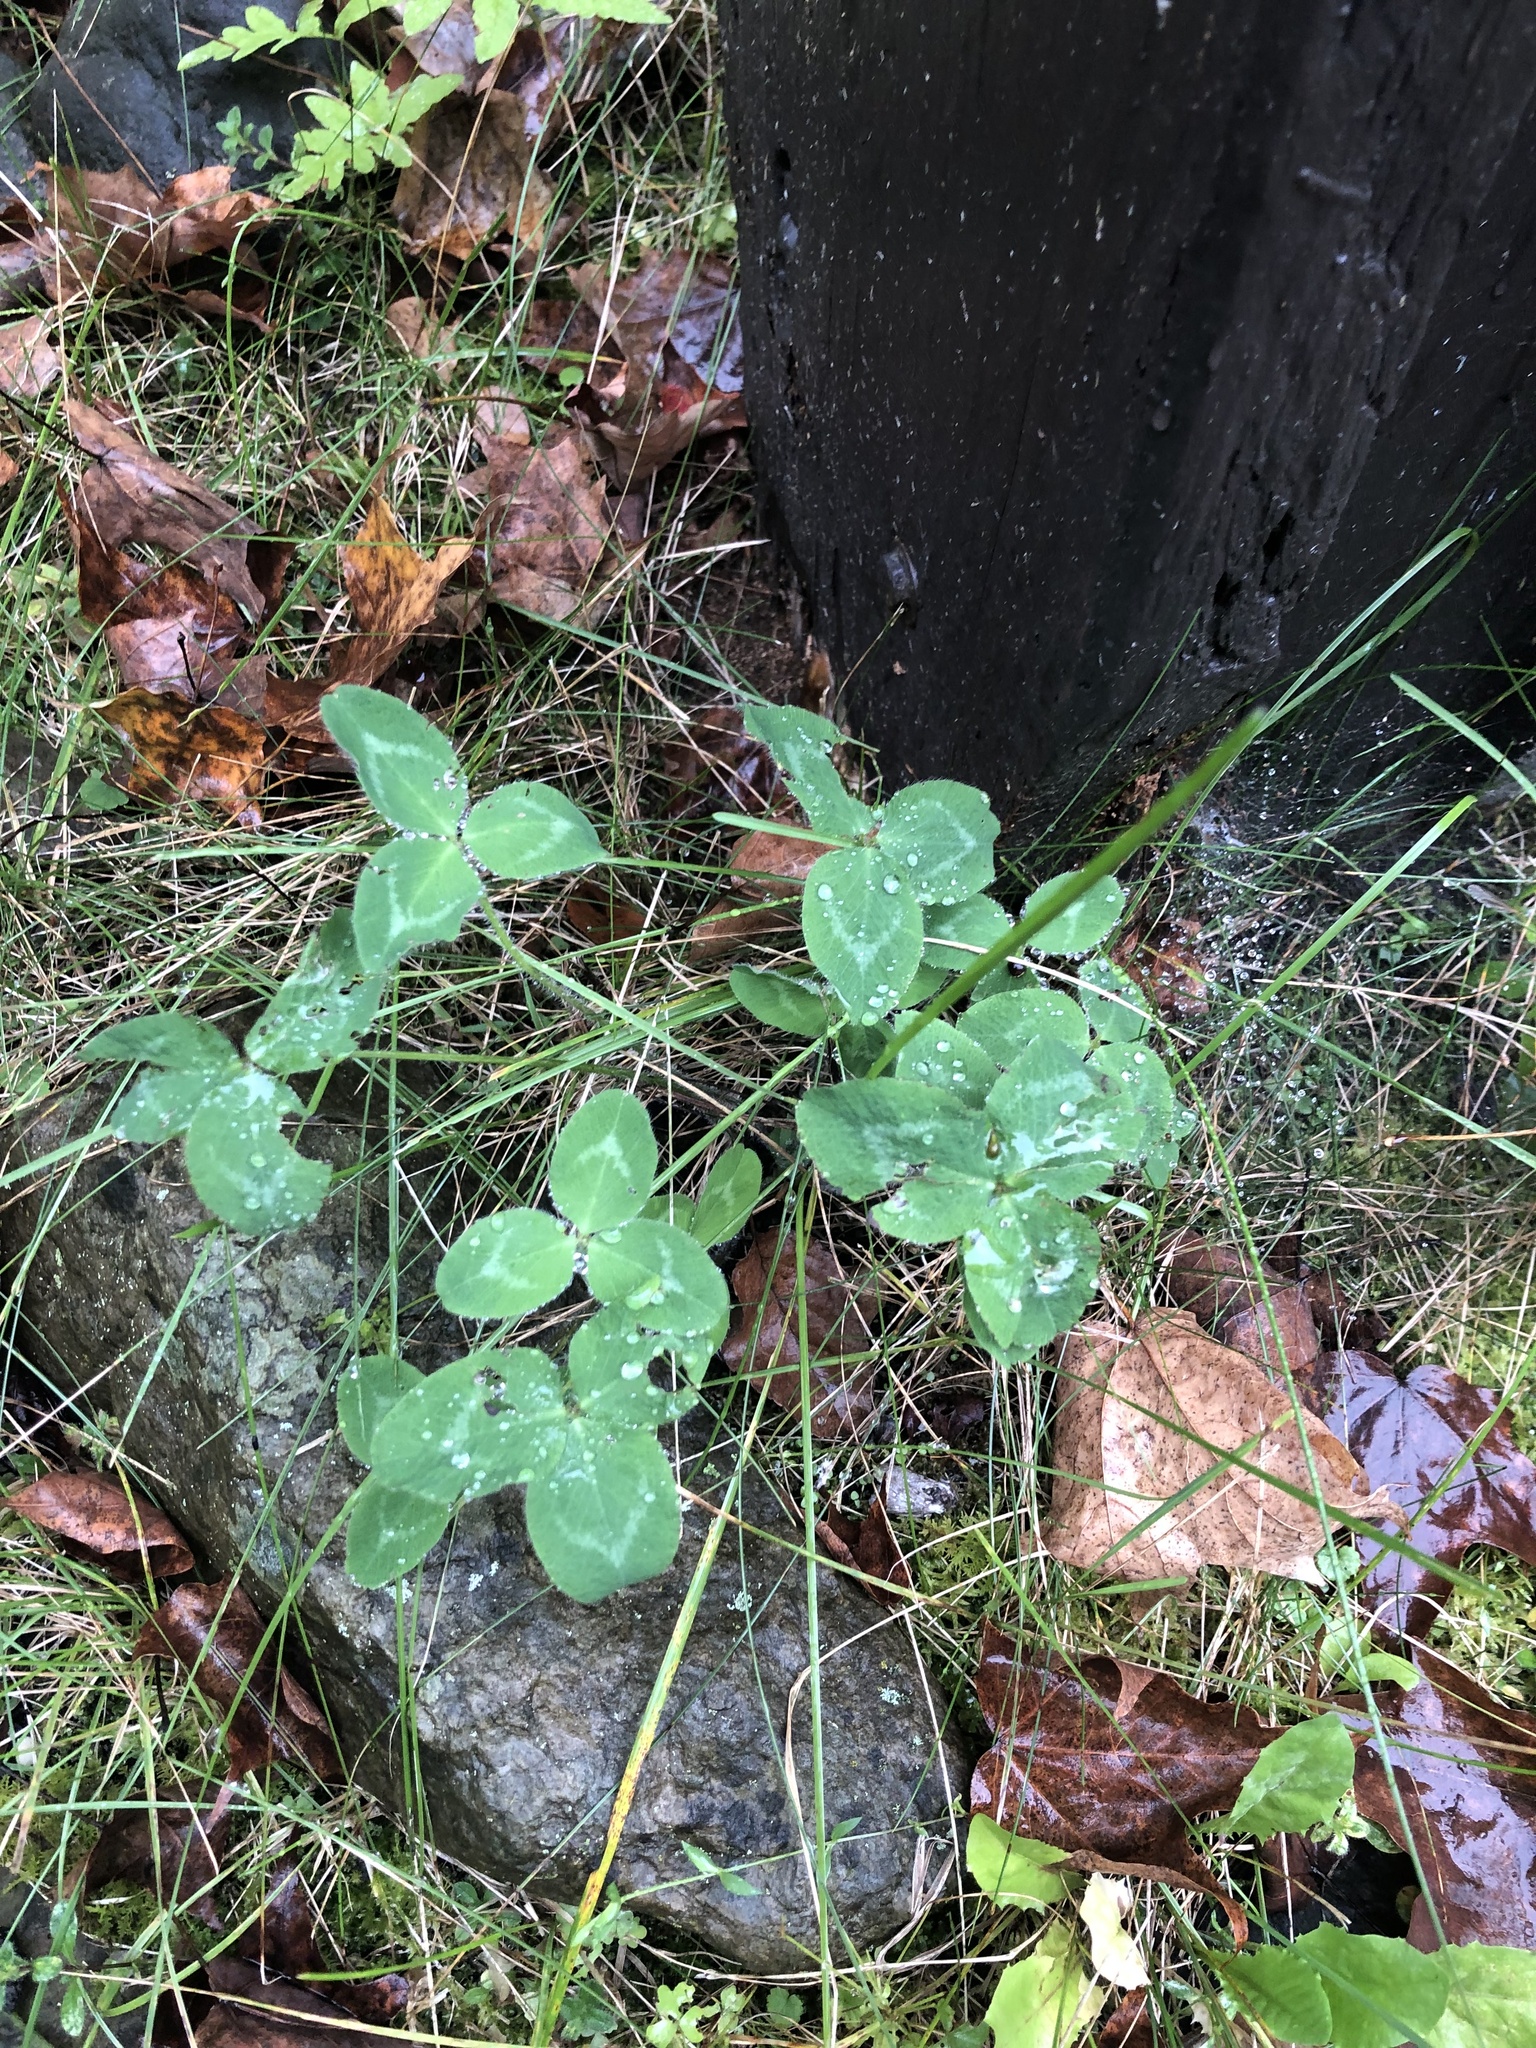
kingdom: Plantae
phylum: Tracheophyta
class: Magnoliopsida
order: Fabales
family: Fabaceae
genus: Trifolium
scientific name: Trifolium pratense
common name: Red clover
